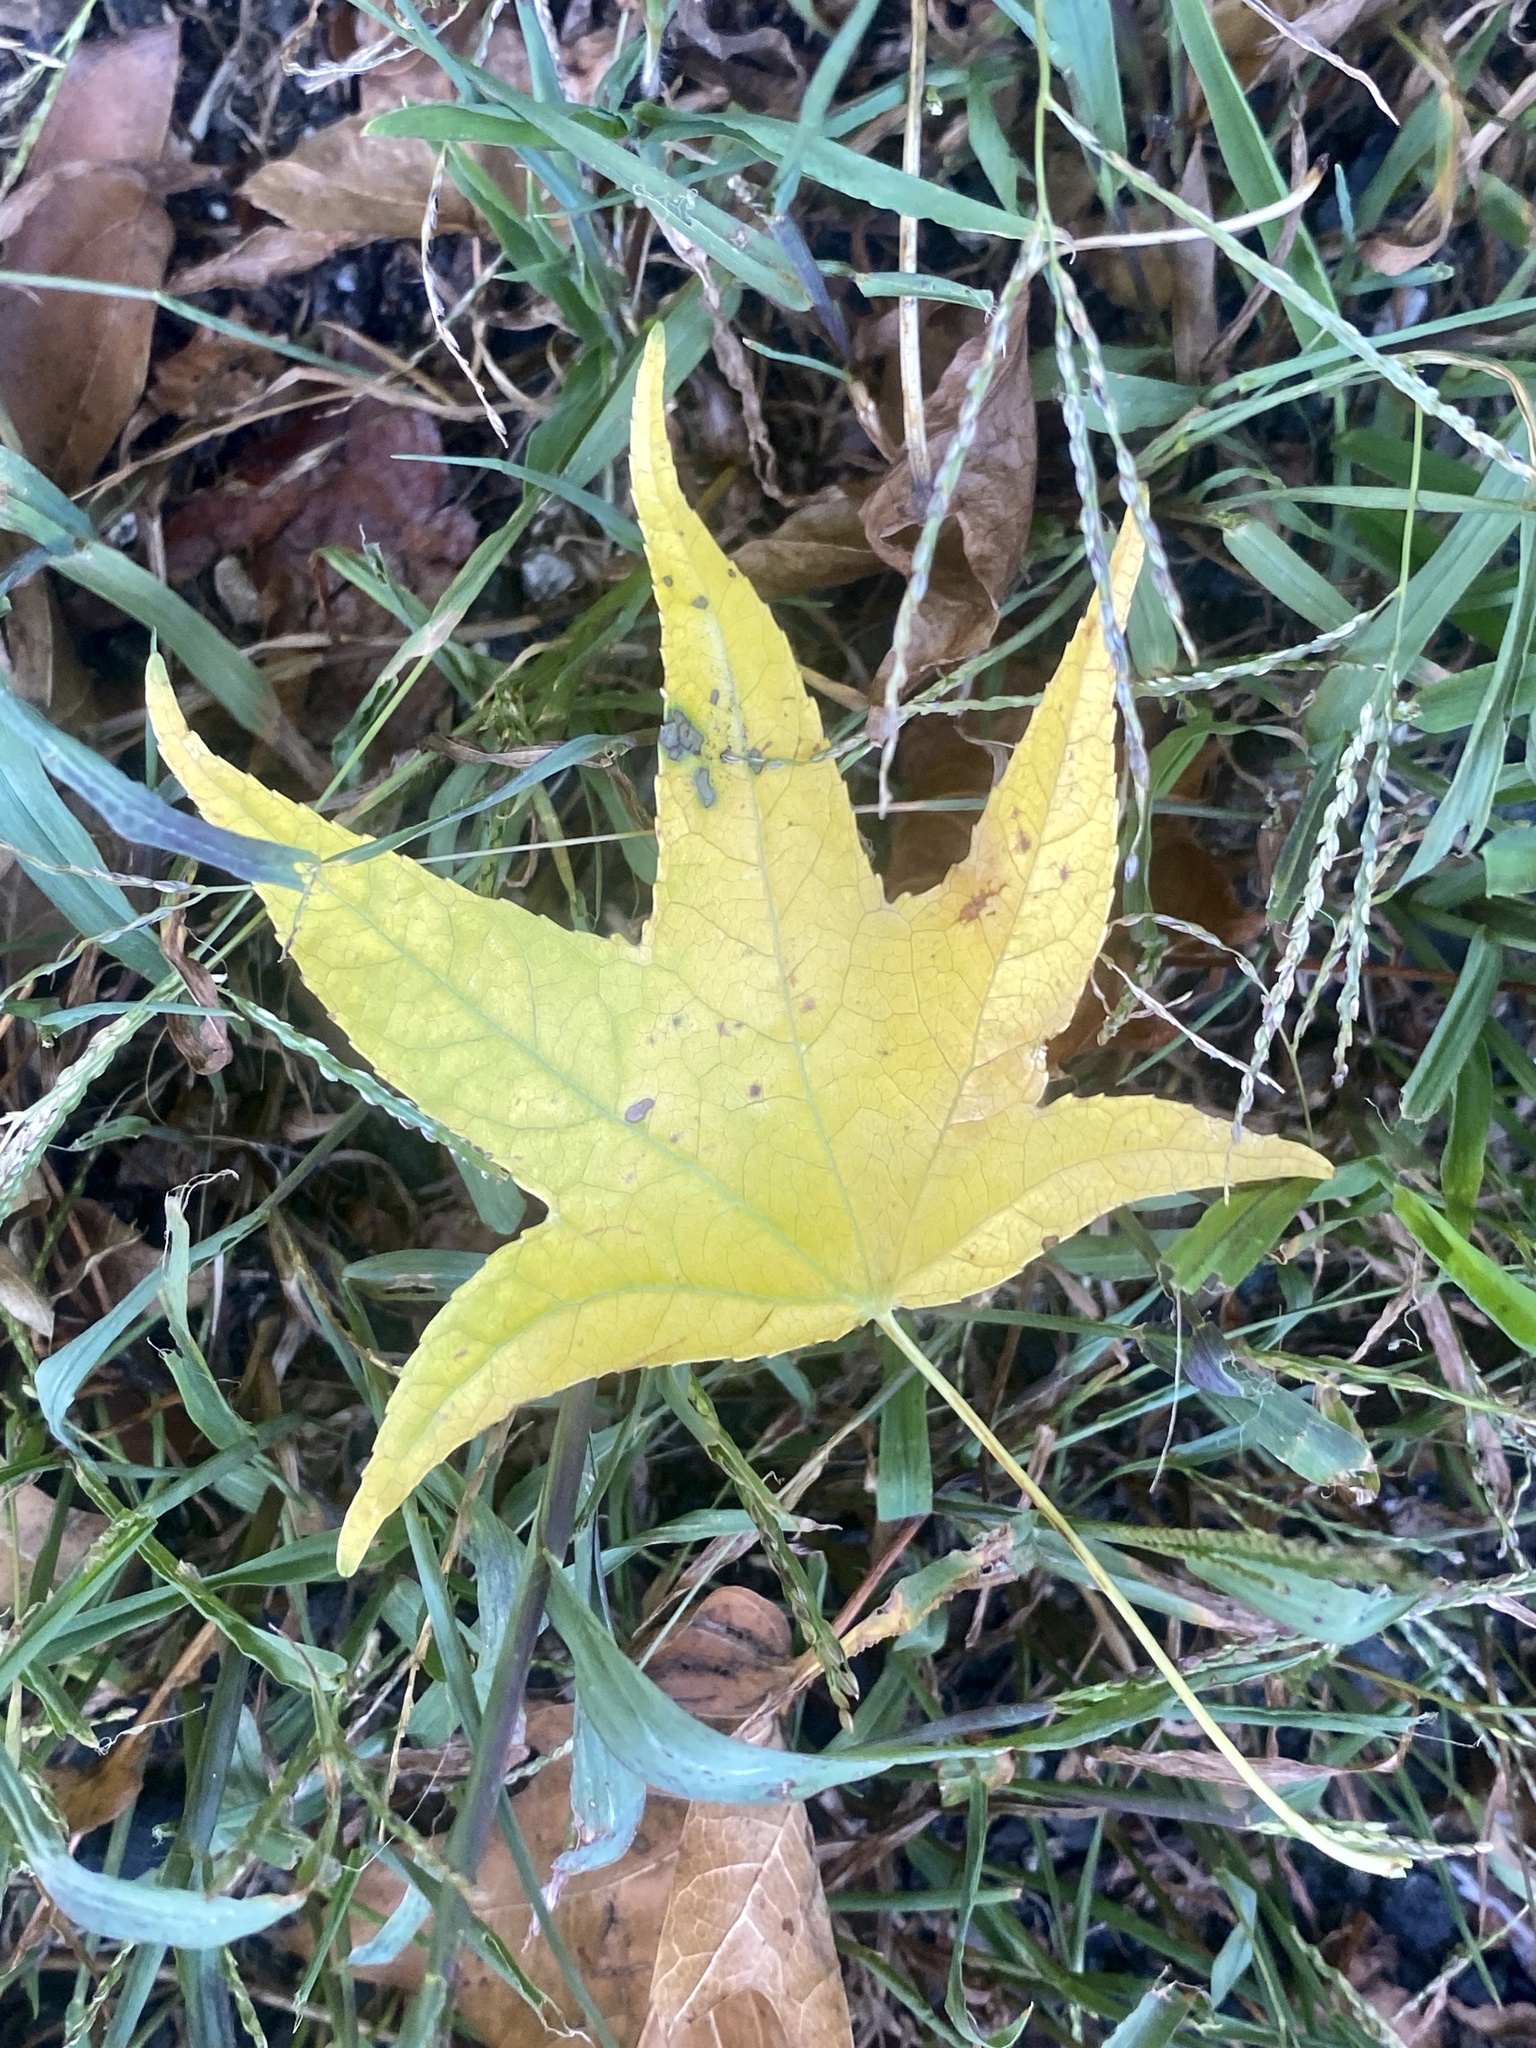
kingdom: Plantae
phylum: Tracheophyta
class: Magnoliopsida
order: Saxifragales
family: Altingiaceae
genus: Liquidambar
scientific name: Liquidambar styraciflua
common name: Sweet gum
